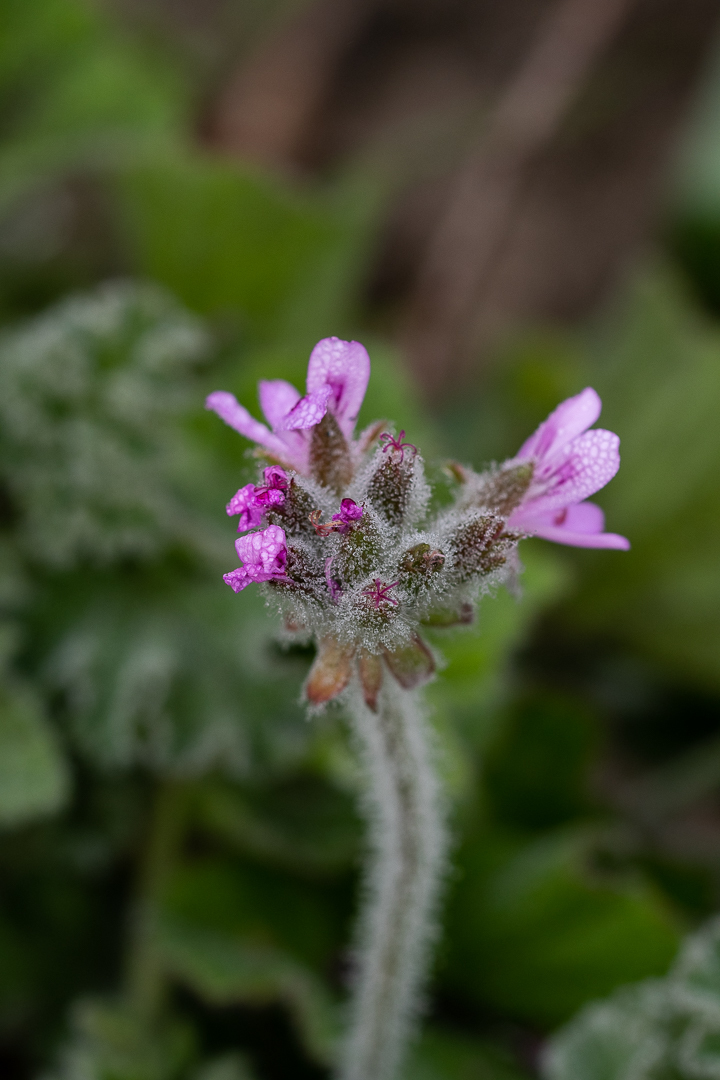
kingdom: Plantae
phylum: Tracheophyta
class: Magnoliopsida
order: Geraniales
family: Geraniaceae
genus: Pelargonium
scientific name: Pelargonium capitatum
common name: Rose scented geranium
